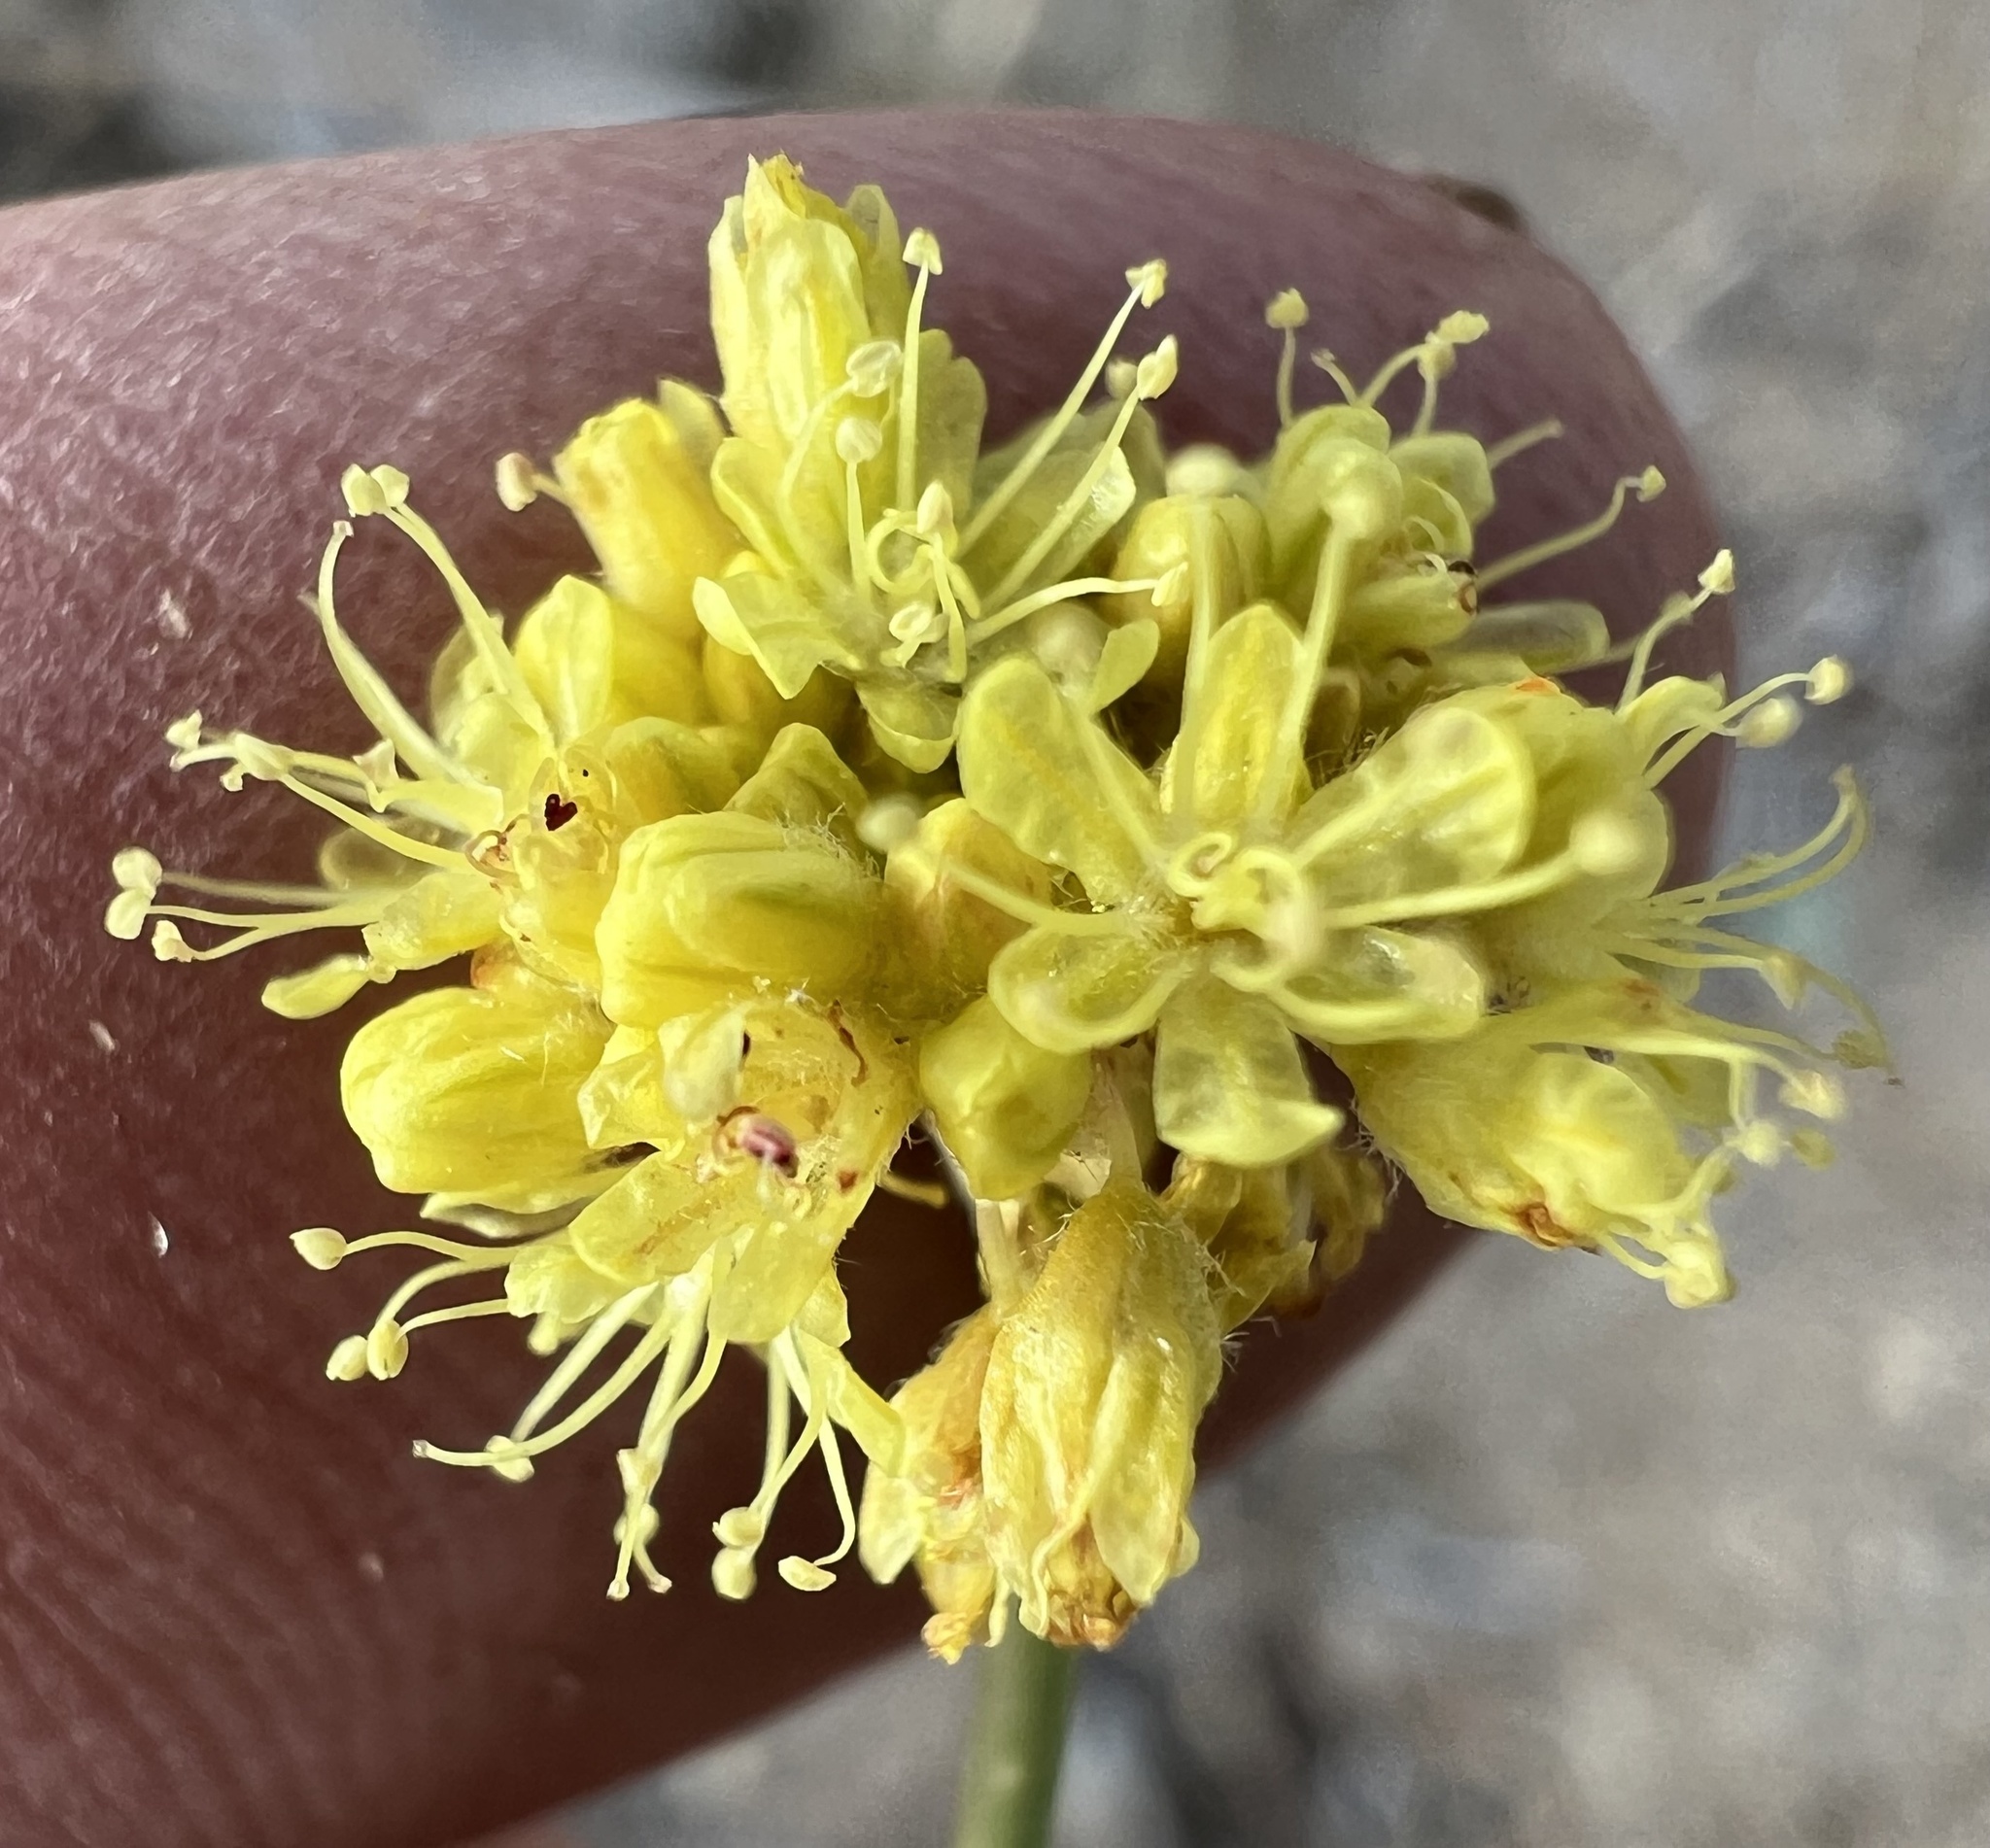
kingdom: Plantae
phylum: Tracheophyta
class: Magnoliopsida
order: Caryophyllales
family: Polygonaceae
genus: Eriogonum
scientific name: Eriogonum nudum
